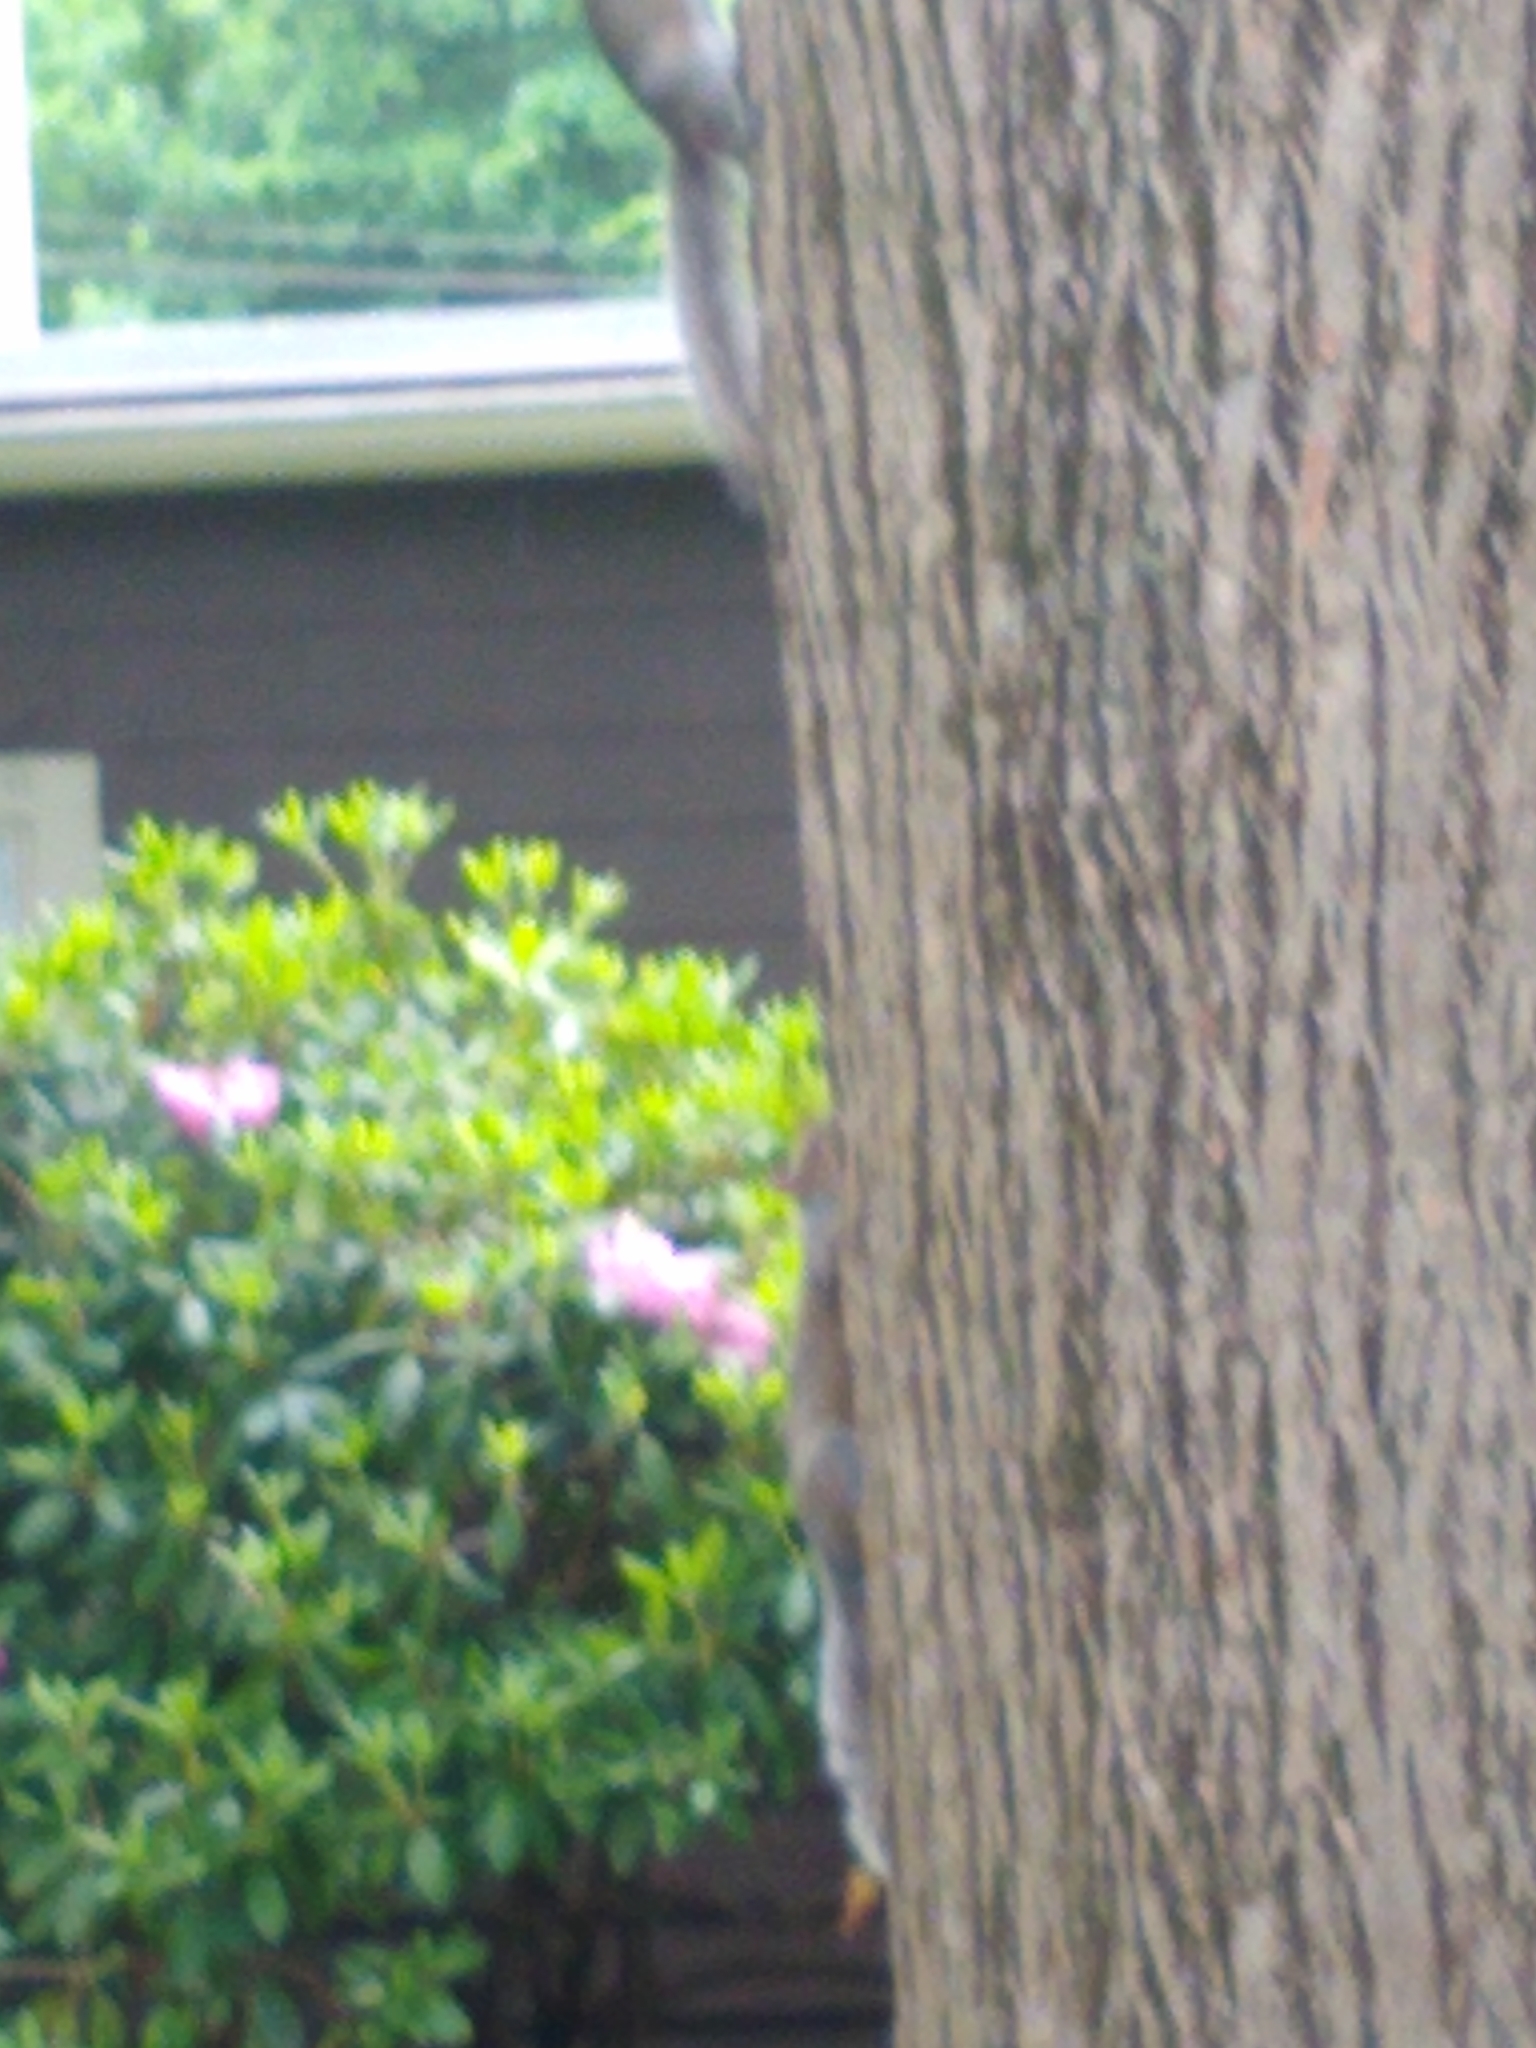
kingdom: Animalia
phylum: Chordata
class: Mammalia
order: Rodentia
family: Sciuridae
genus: Sciurus
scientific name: Sciurus carolinensis
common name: Eastern gray squirrel
